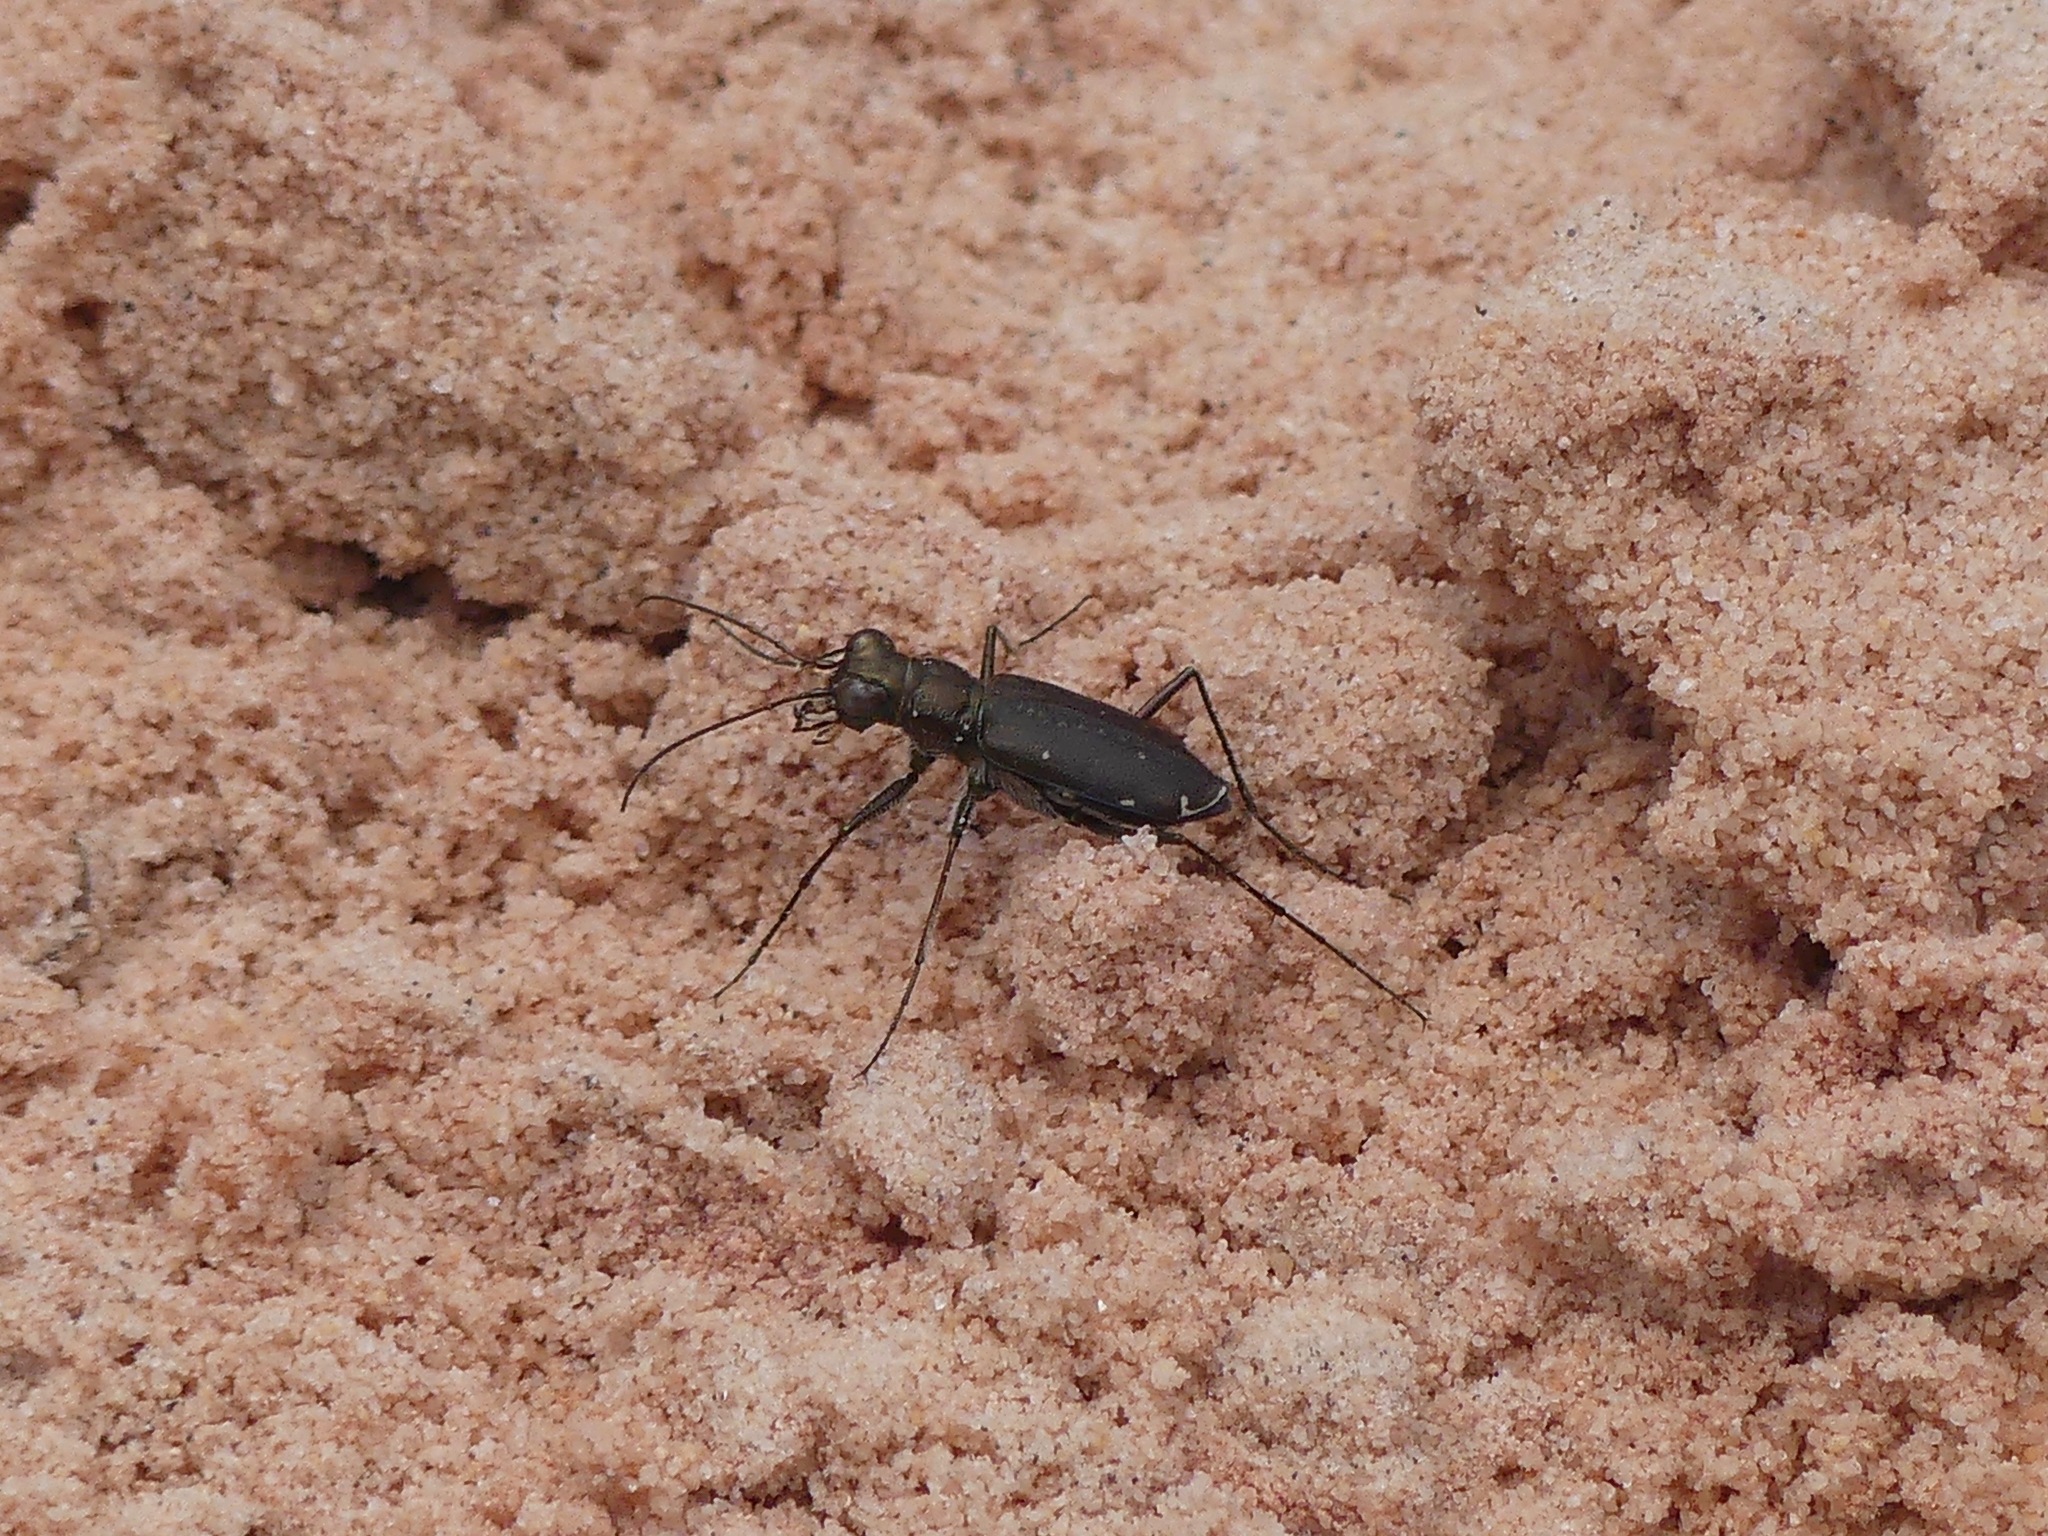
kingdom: Animalia
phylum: Arthropoda
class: Insecta
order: Coleoptera
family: Carabidae
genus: Cicindela
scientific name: Cicindela punctulata
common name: Punctured tiger beetle
